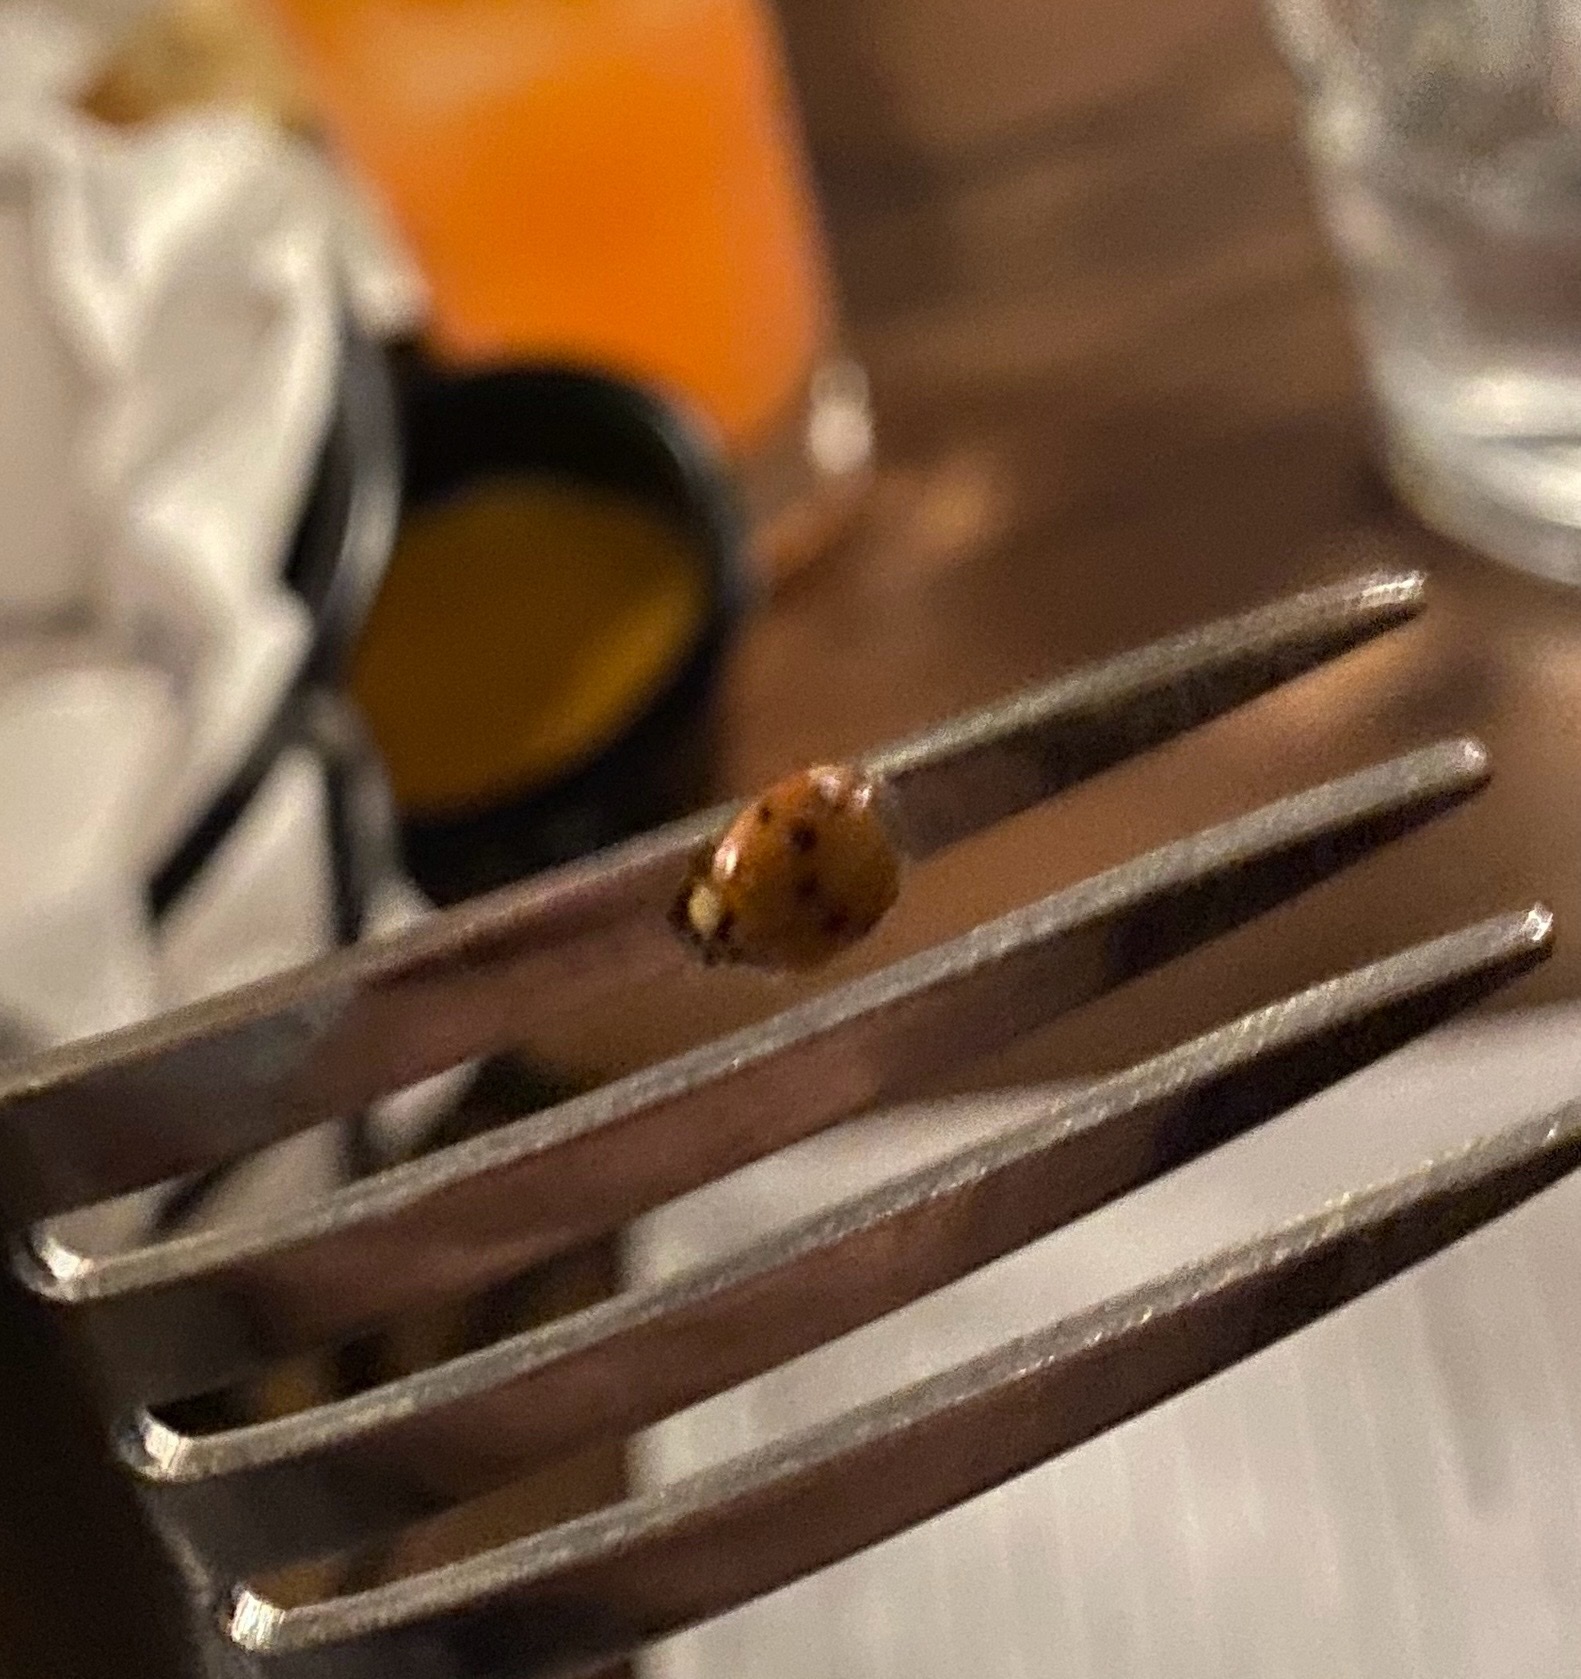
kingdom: Animalia
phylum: Arthropoda
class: Insecta
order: Coleoptera
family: Coccinellidae
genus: Harmonia
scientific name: Harmonia axyridis
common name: Harlequin ladybird
